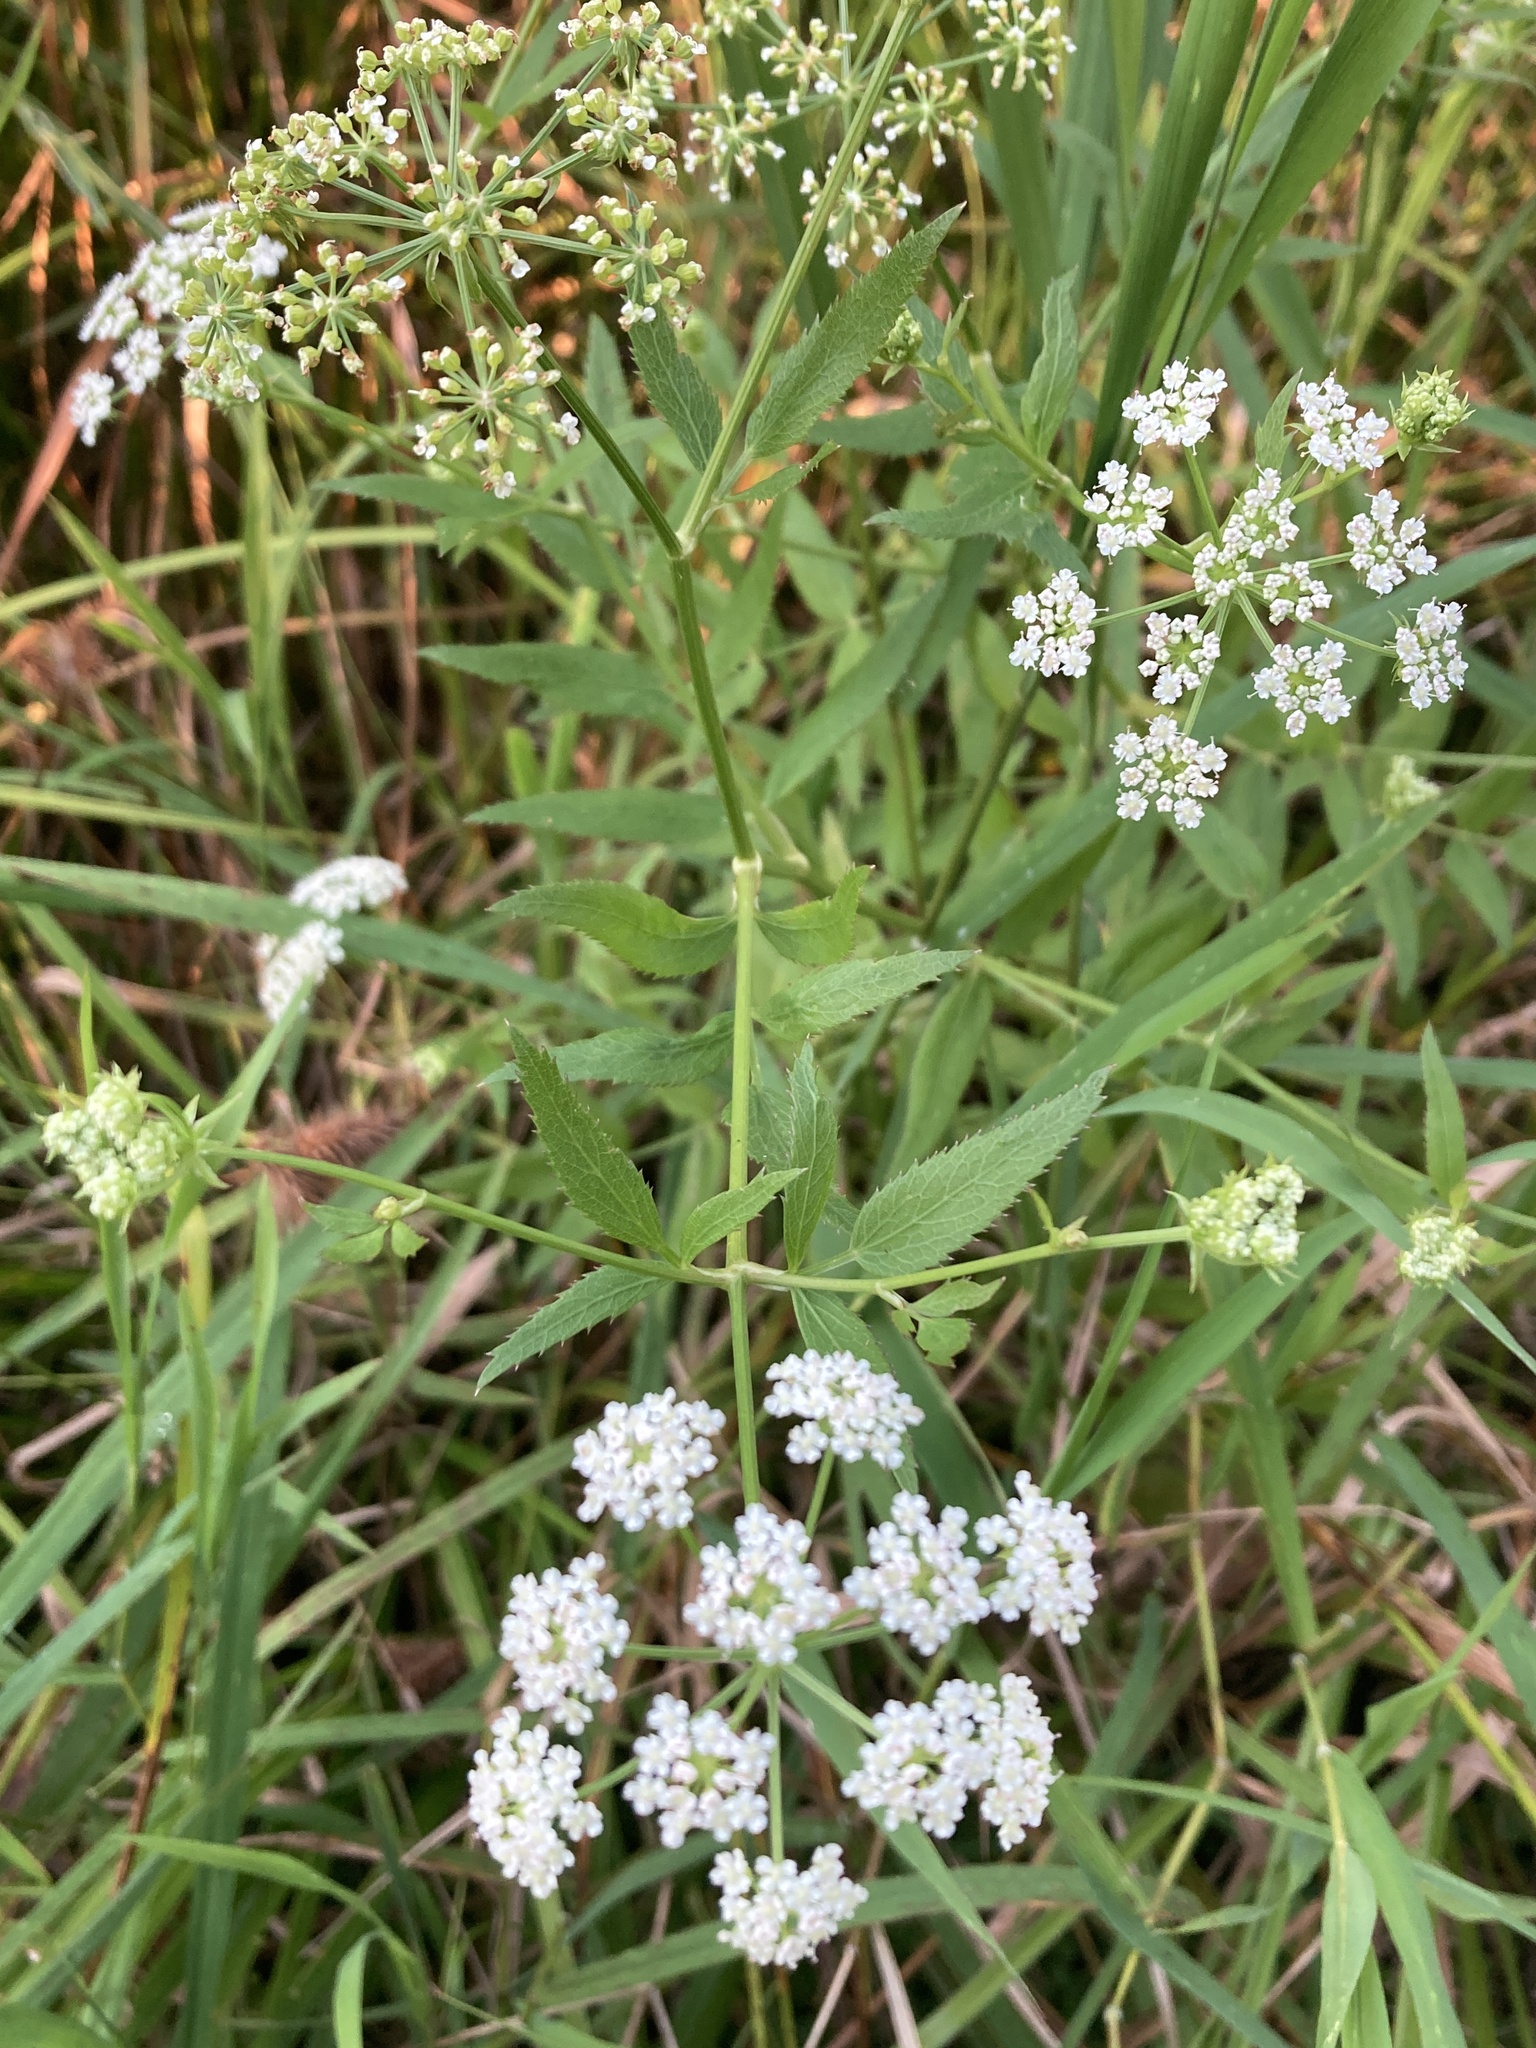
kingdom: Plantae
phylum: Tracheophyta
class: Magnoliopsida
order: Apiales
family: Apiaceae
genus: Sium
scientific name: Sium suave
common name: Hemlock water-parsnip
